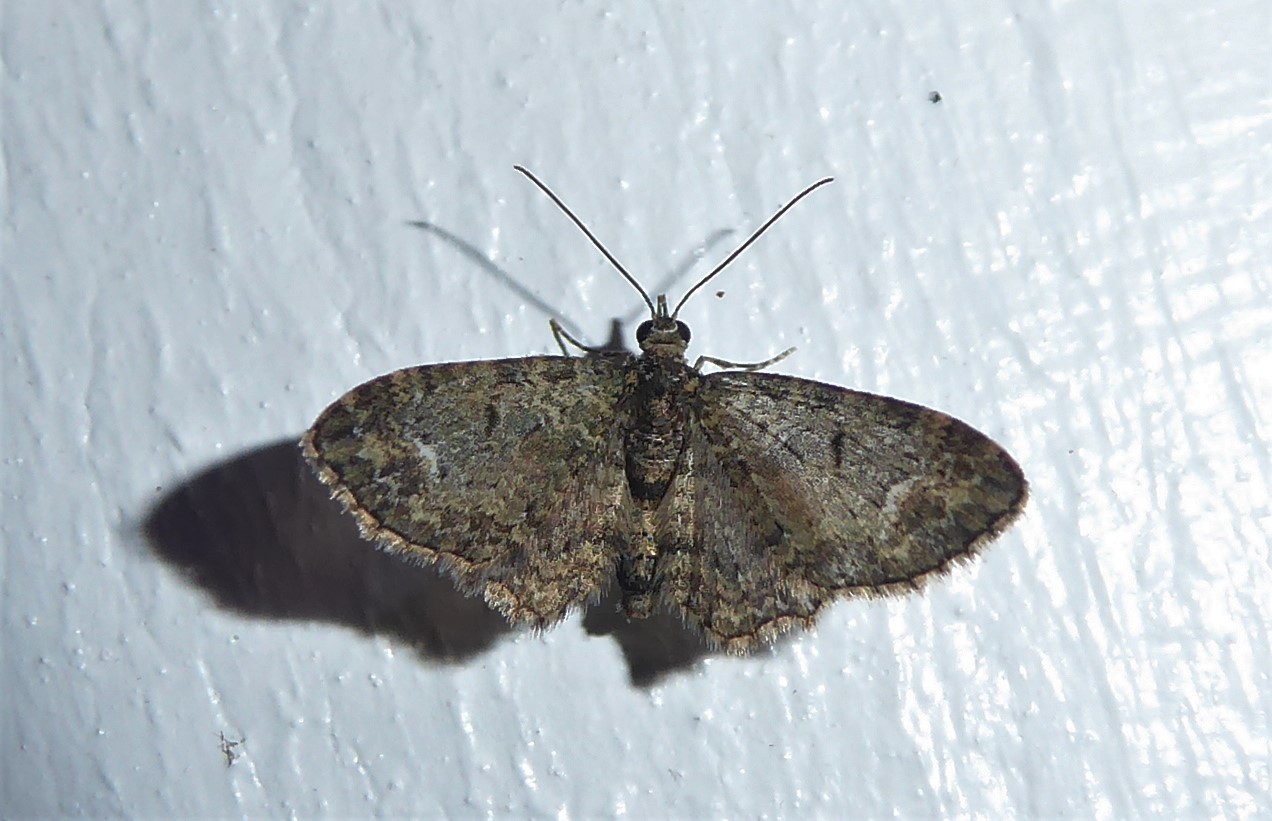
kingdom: Animalia
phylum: Arthropoda
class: Insecta
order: Lepidoptera
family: Geometridae
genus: Pasiphilodes
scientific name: Pasiphilodes testulata
